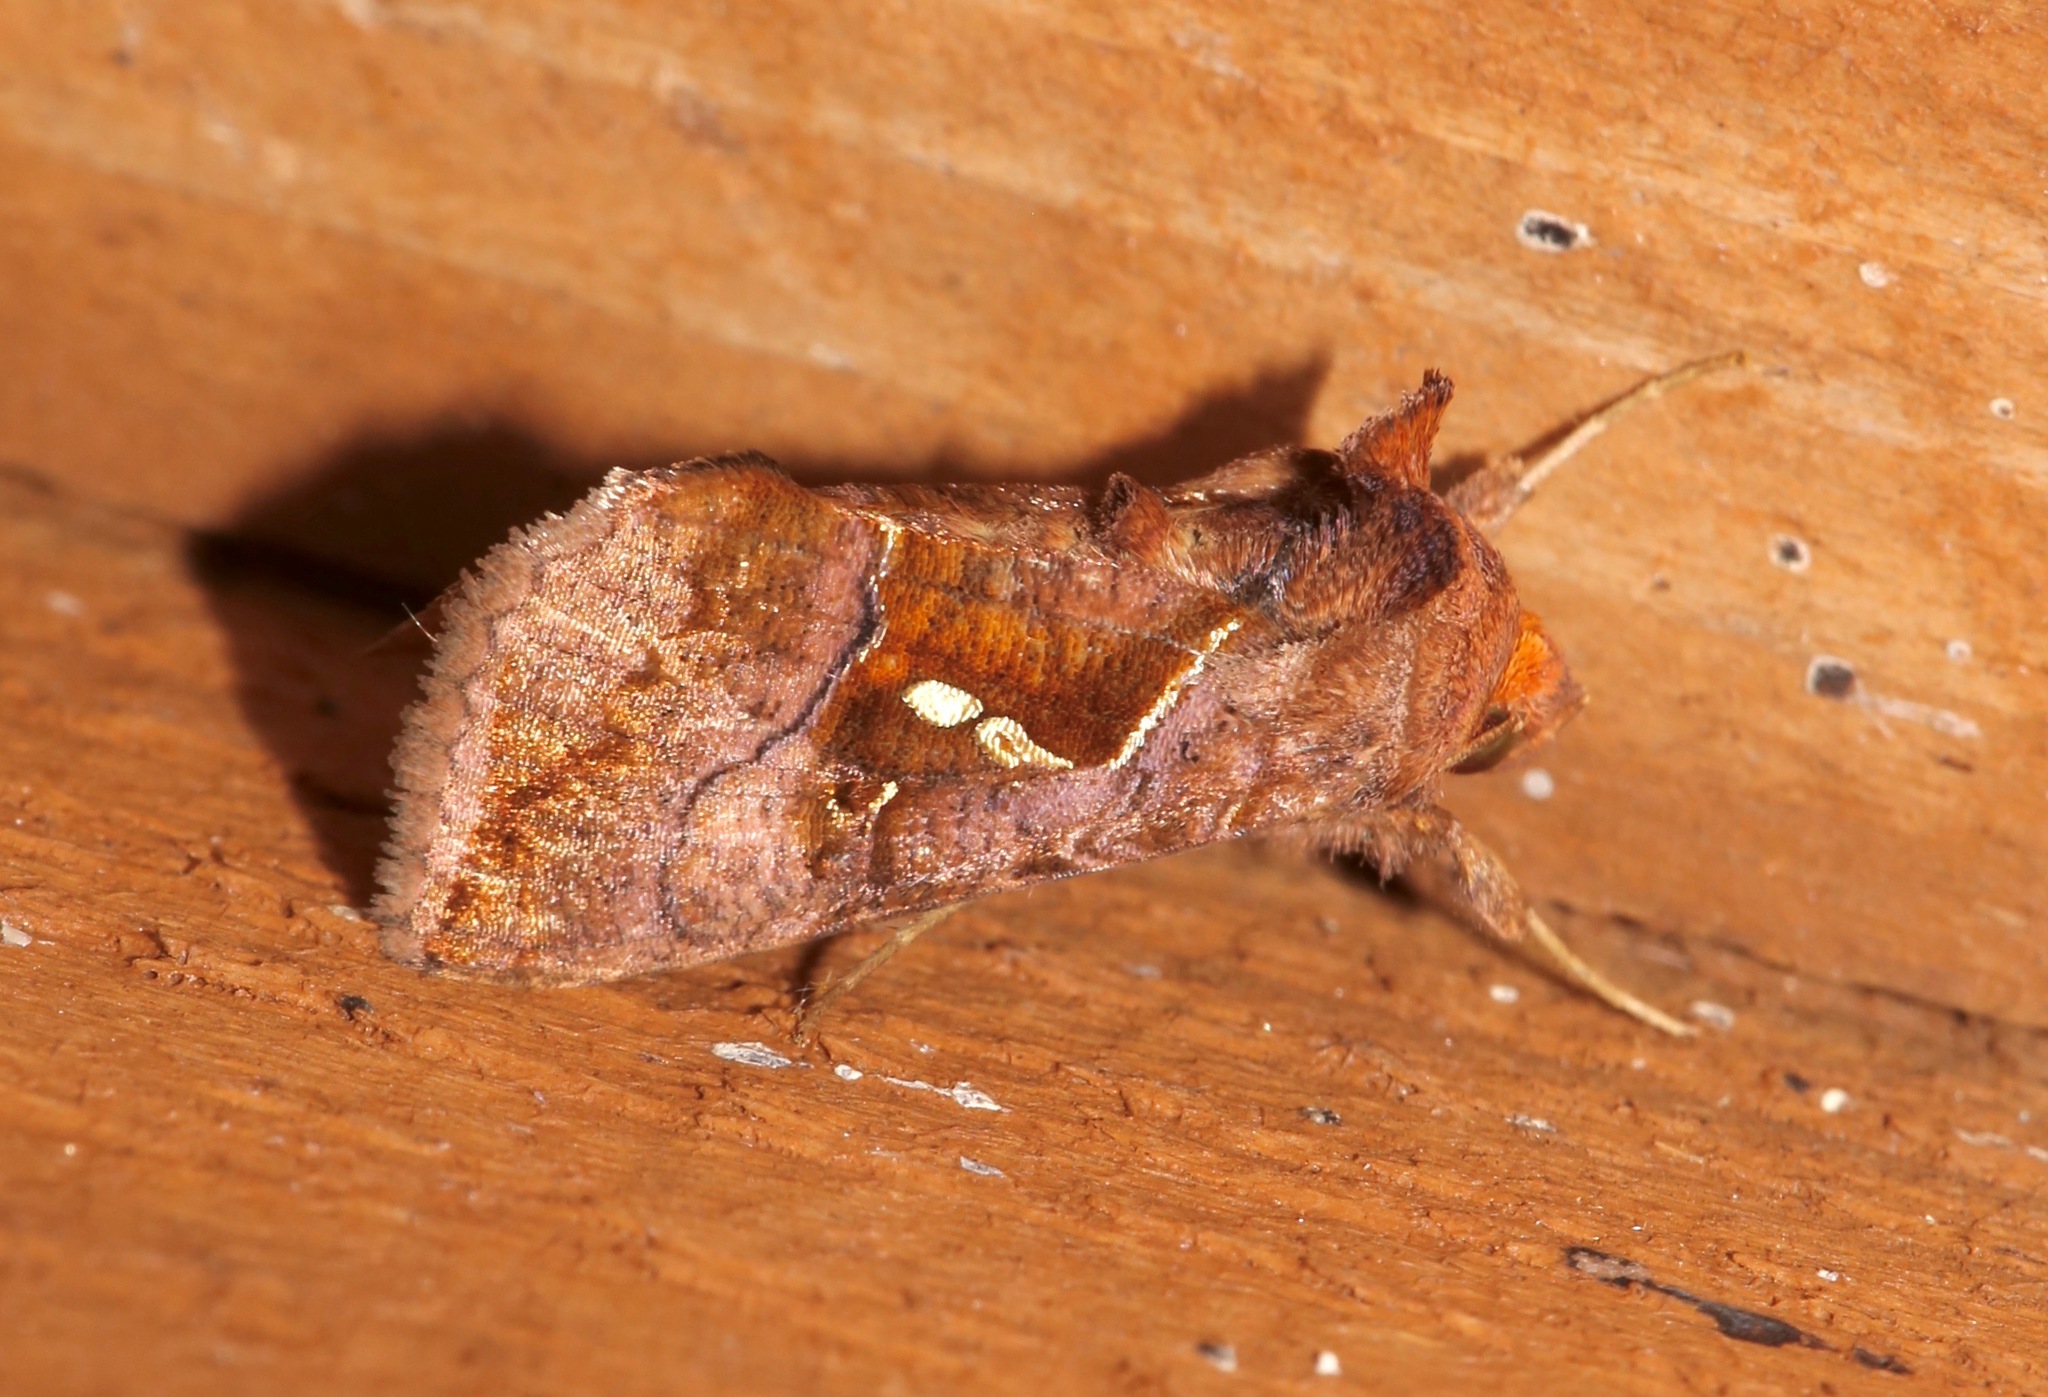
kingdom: Animalia
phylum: Arthropoda
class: Insecta
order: Lepidoptera
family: Noctuidae
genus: Enigmogramma
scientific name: Enigmogramma basigera
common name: Pink-washed looper moth
